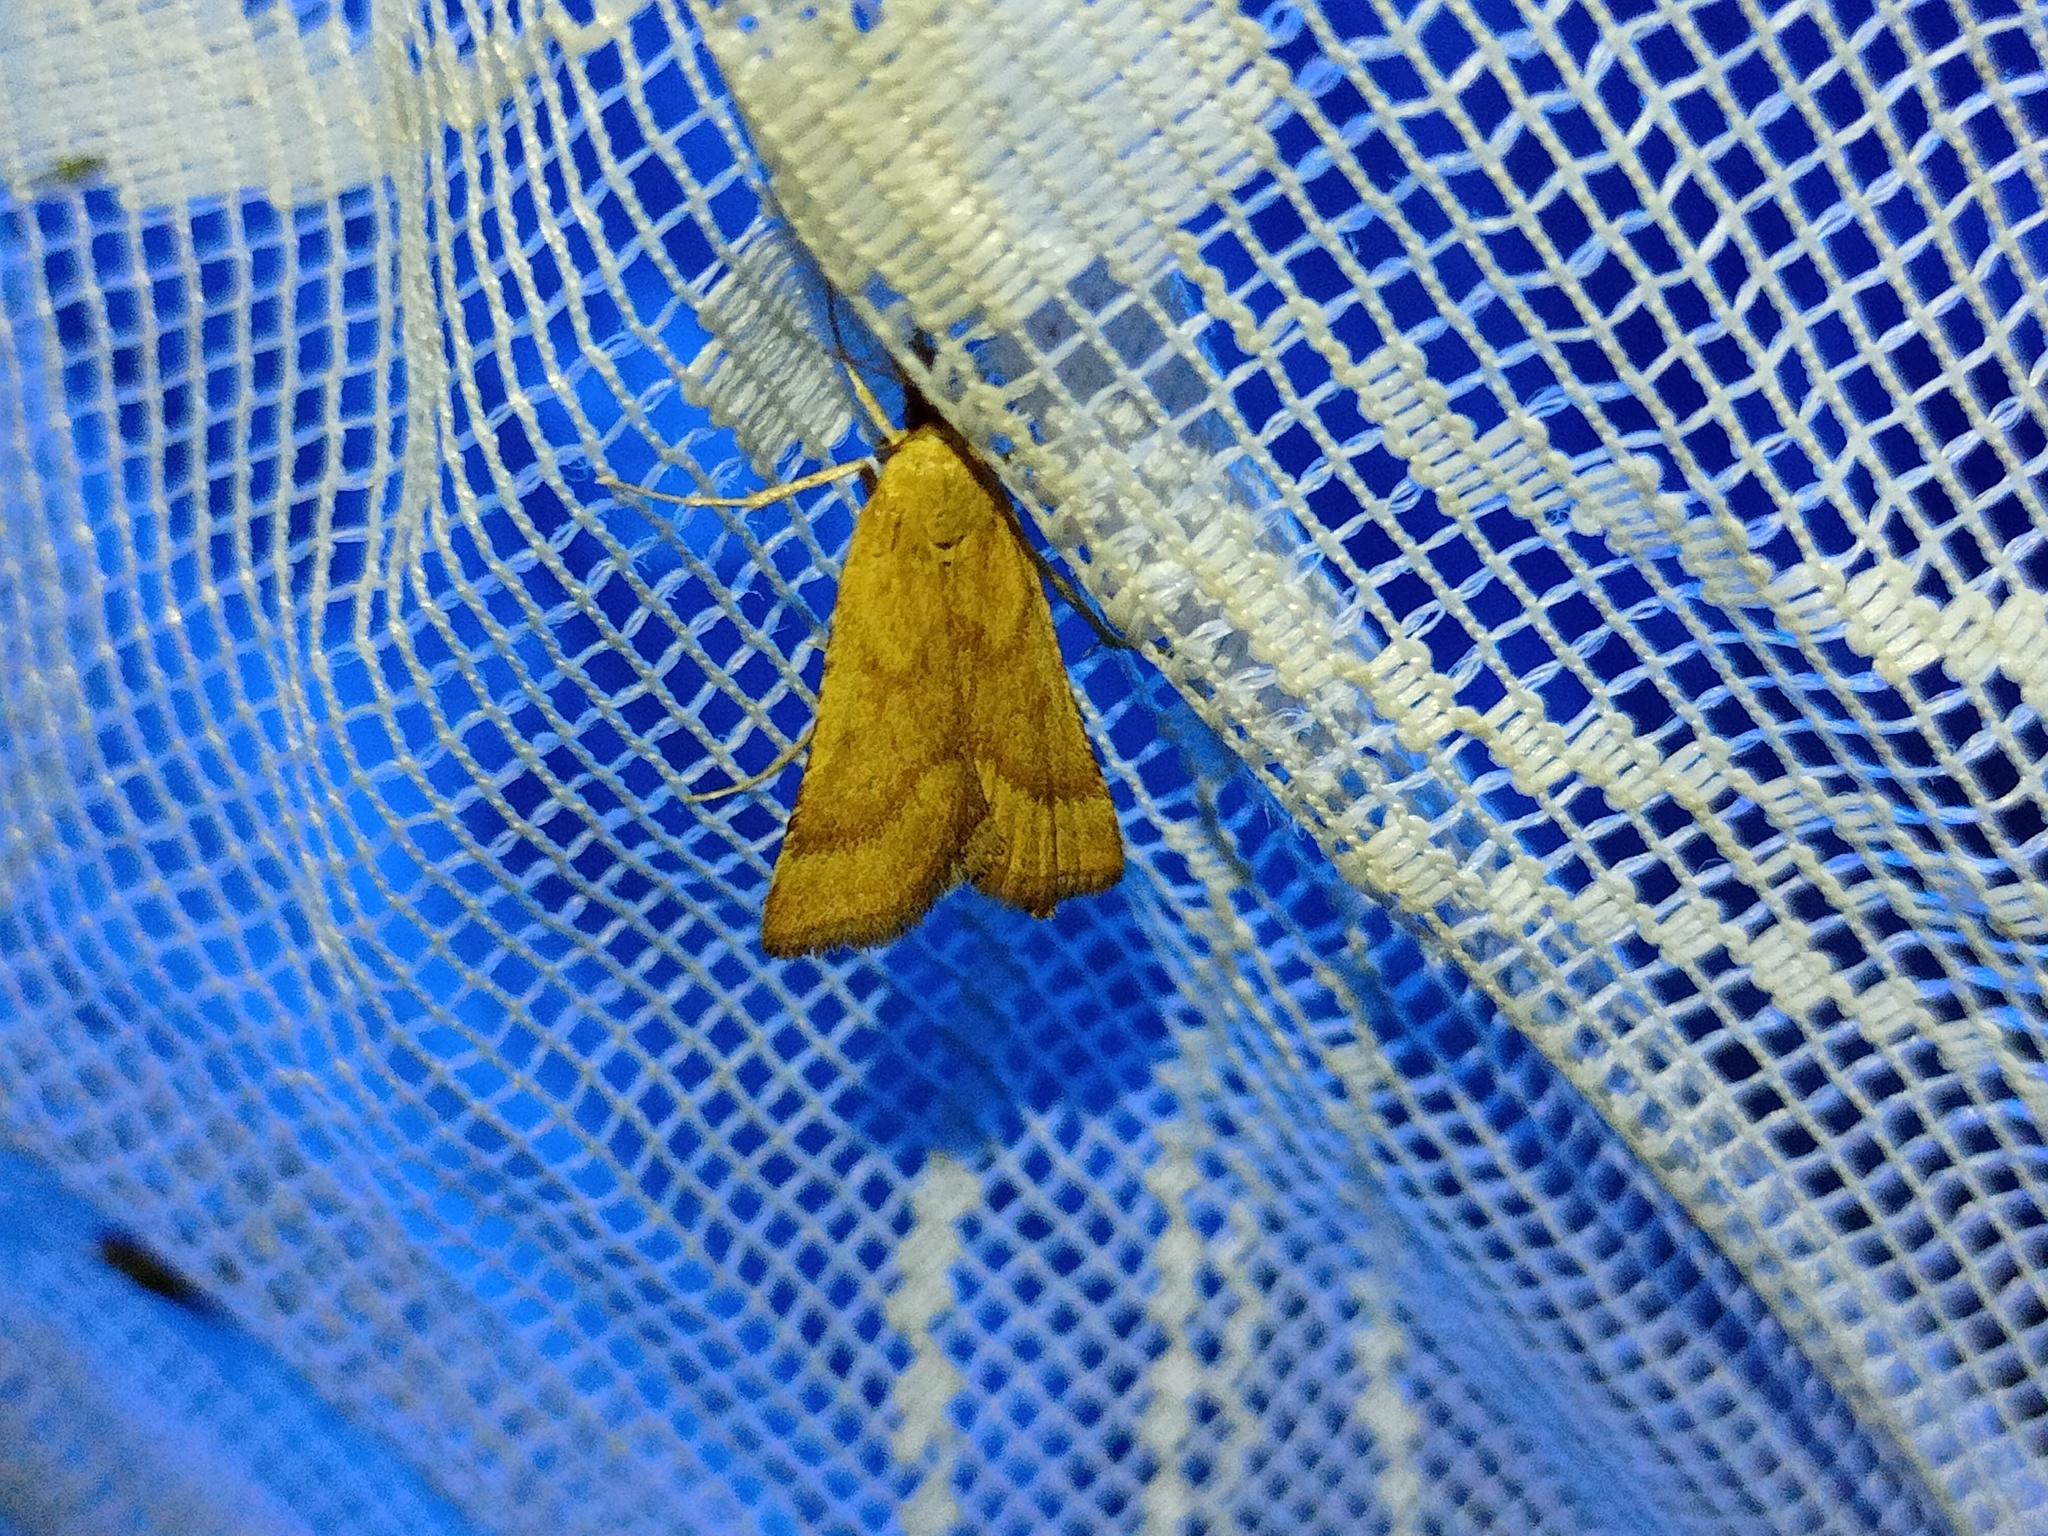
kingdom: Animalia
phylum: Arthropoda
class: Insecta
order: Lepidoptera
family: Pyralidae
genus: Synaphe
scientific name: Synaphe punctalis
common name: Long-legged tabby
